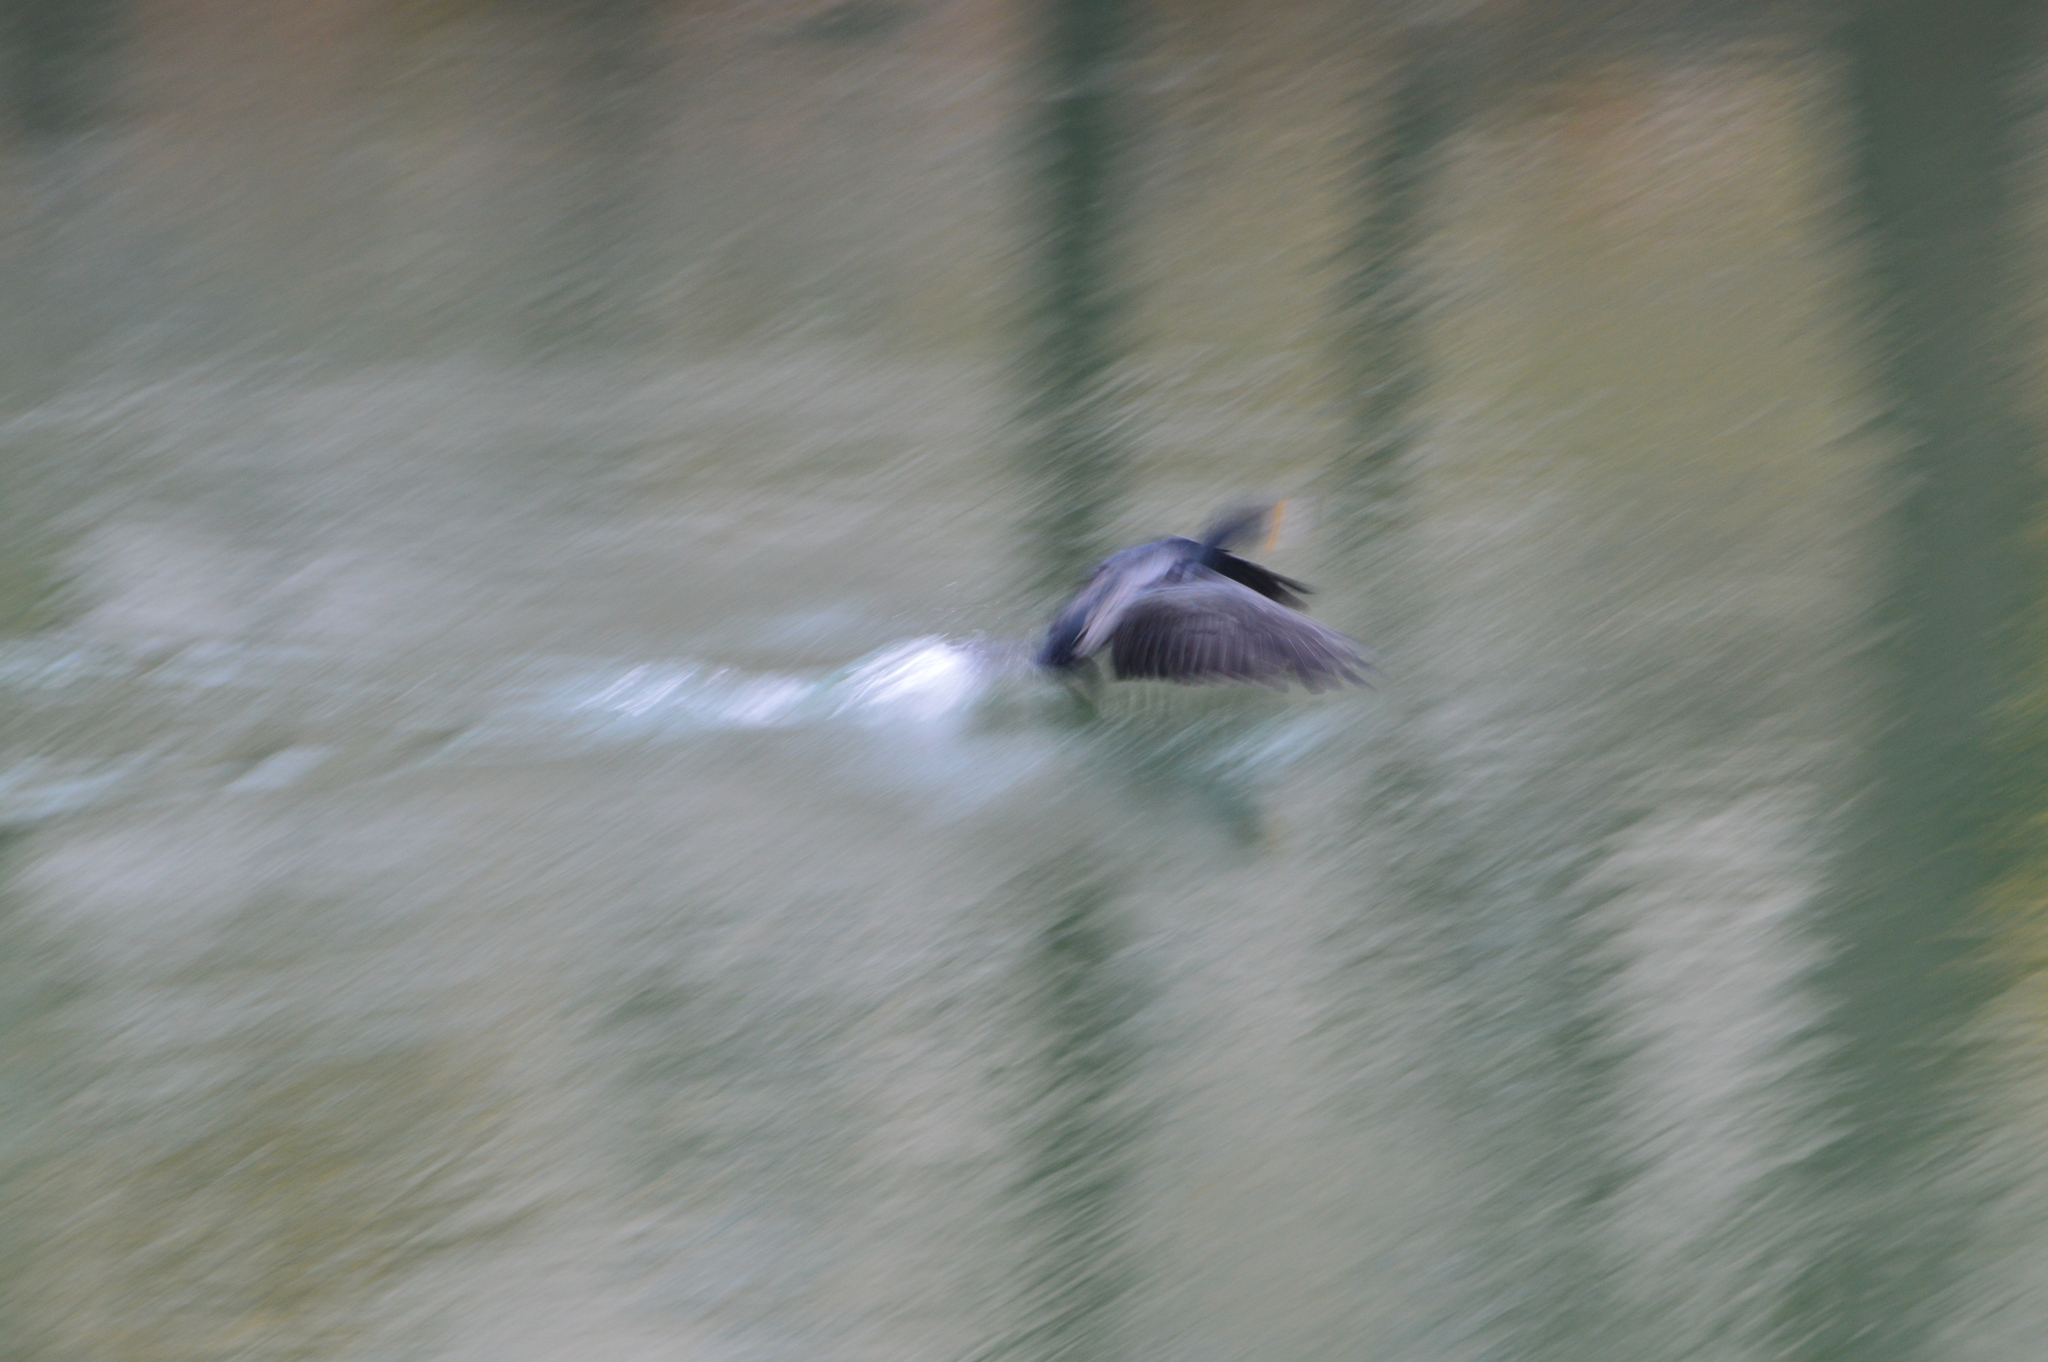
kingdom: Animalia
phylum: Chordata
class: Aves
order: Suliformes
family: Phalacrocoracidae
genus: Phalacrocorax
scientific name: Phalacrocorax carbo
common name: Great cormorant
